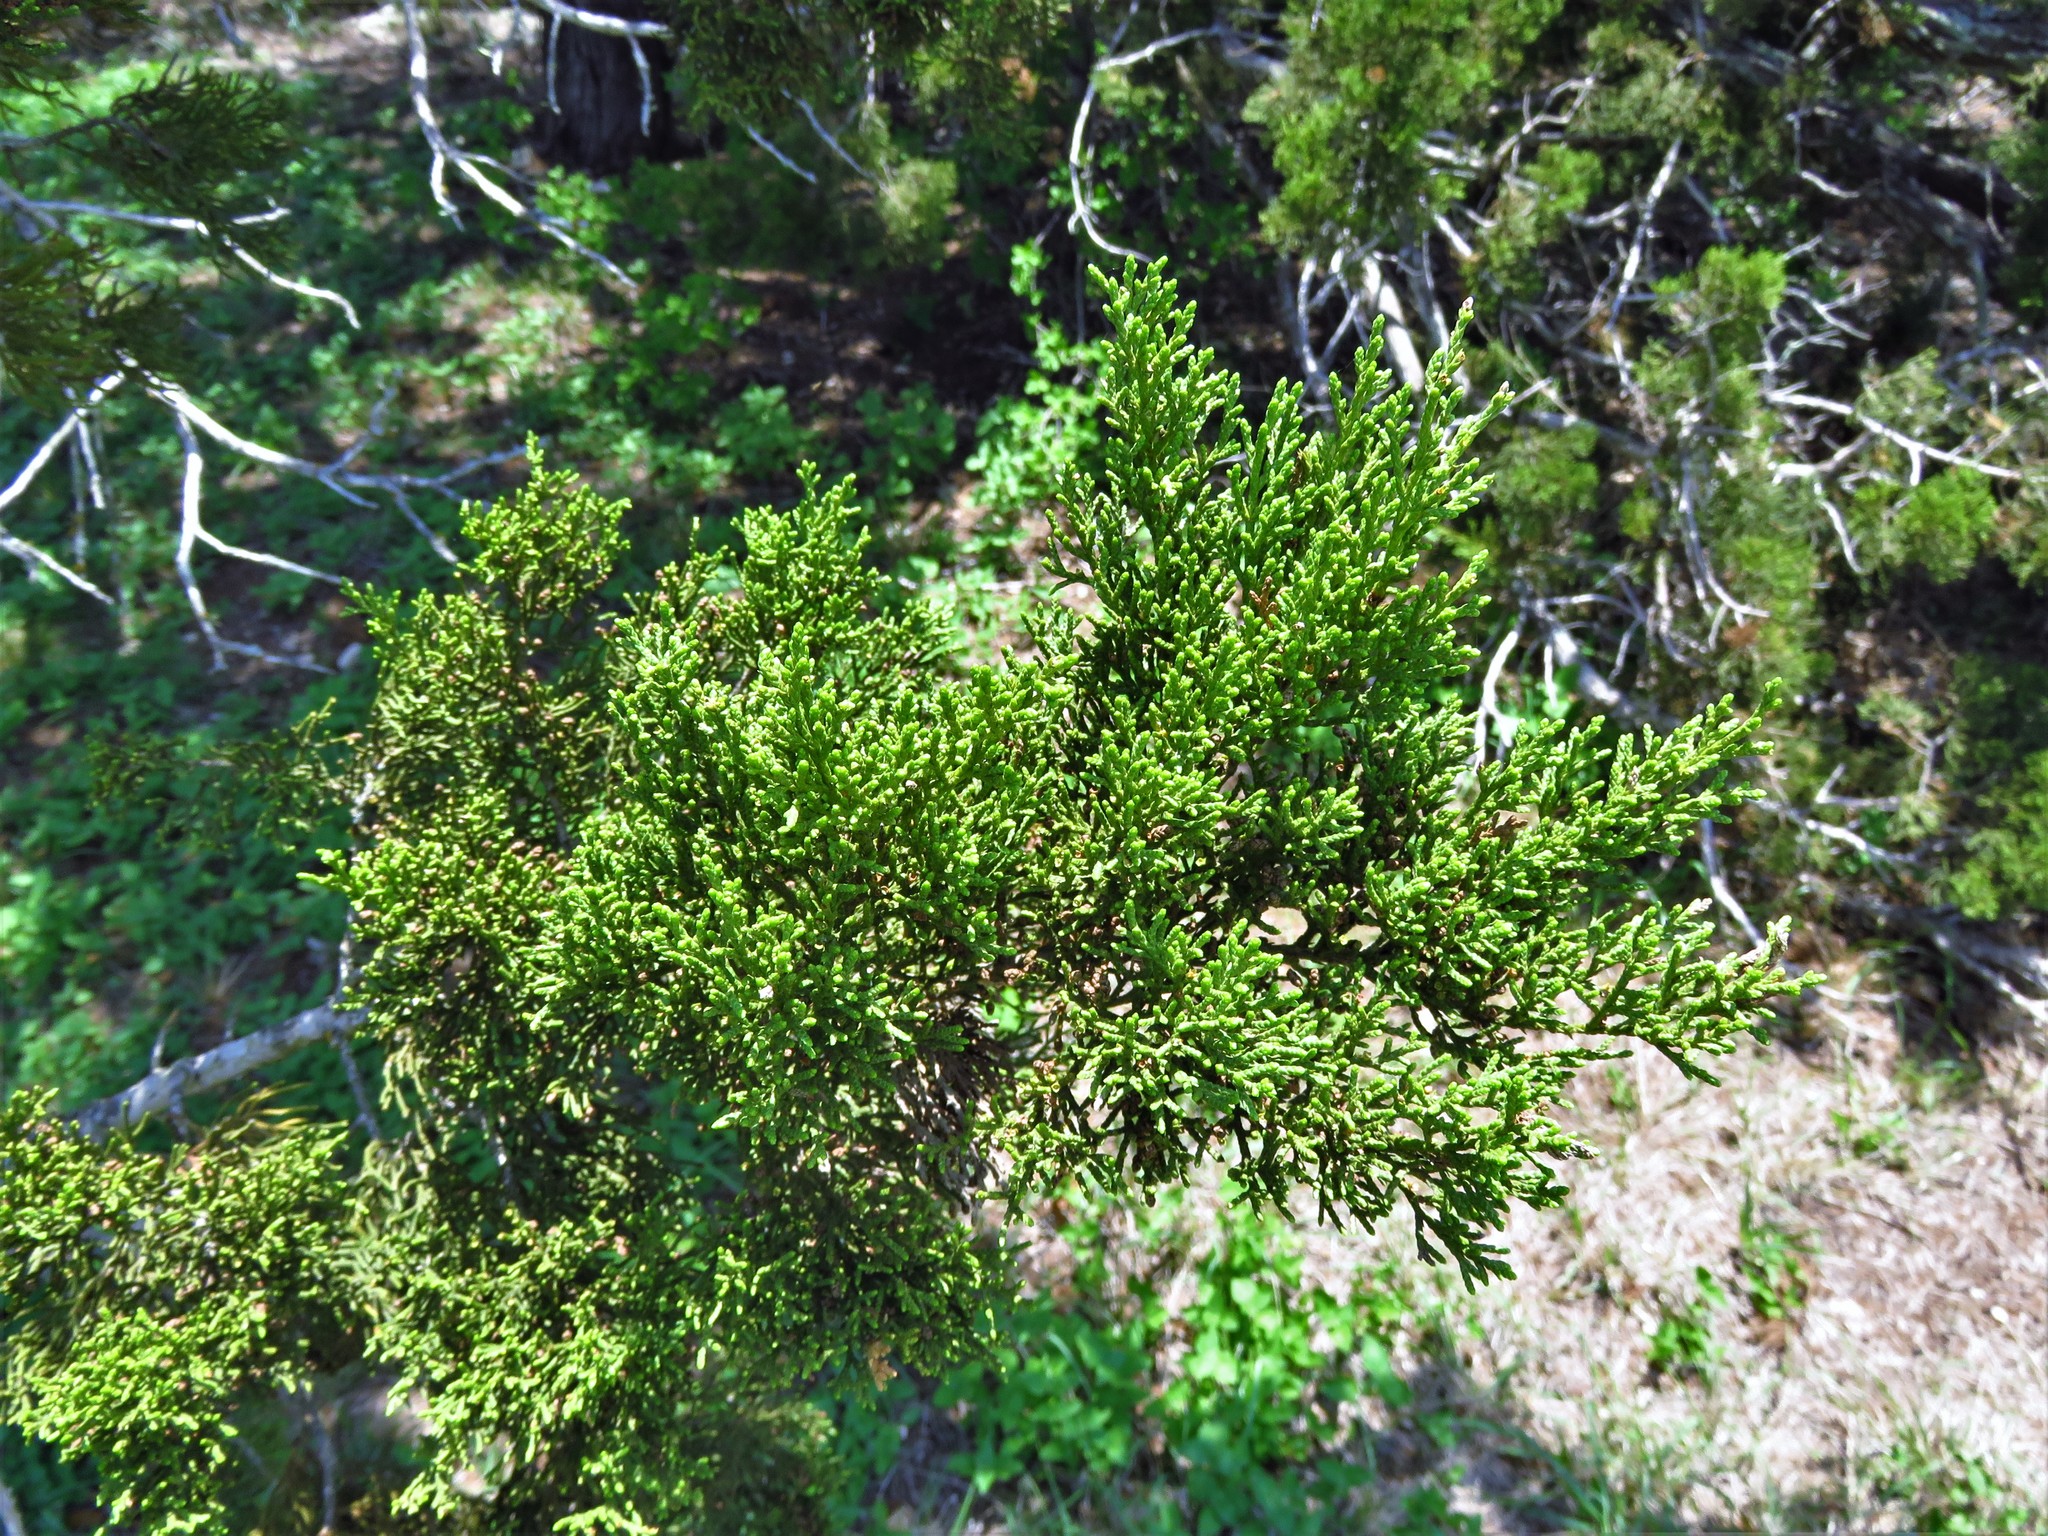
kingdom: Plantae
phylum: Tracheophyta
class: Pinopsida
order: Pinales
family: Cupressaceae
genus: Juniperus
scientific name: Juniperus ashei
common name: Mexican juniper
